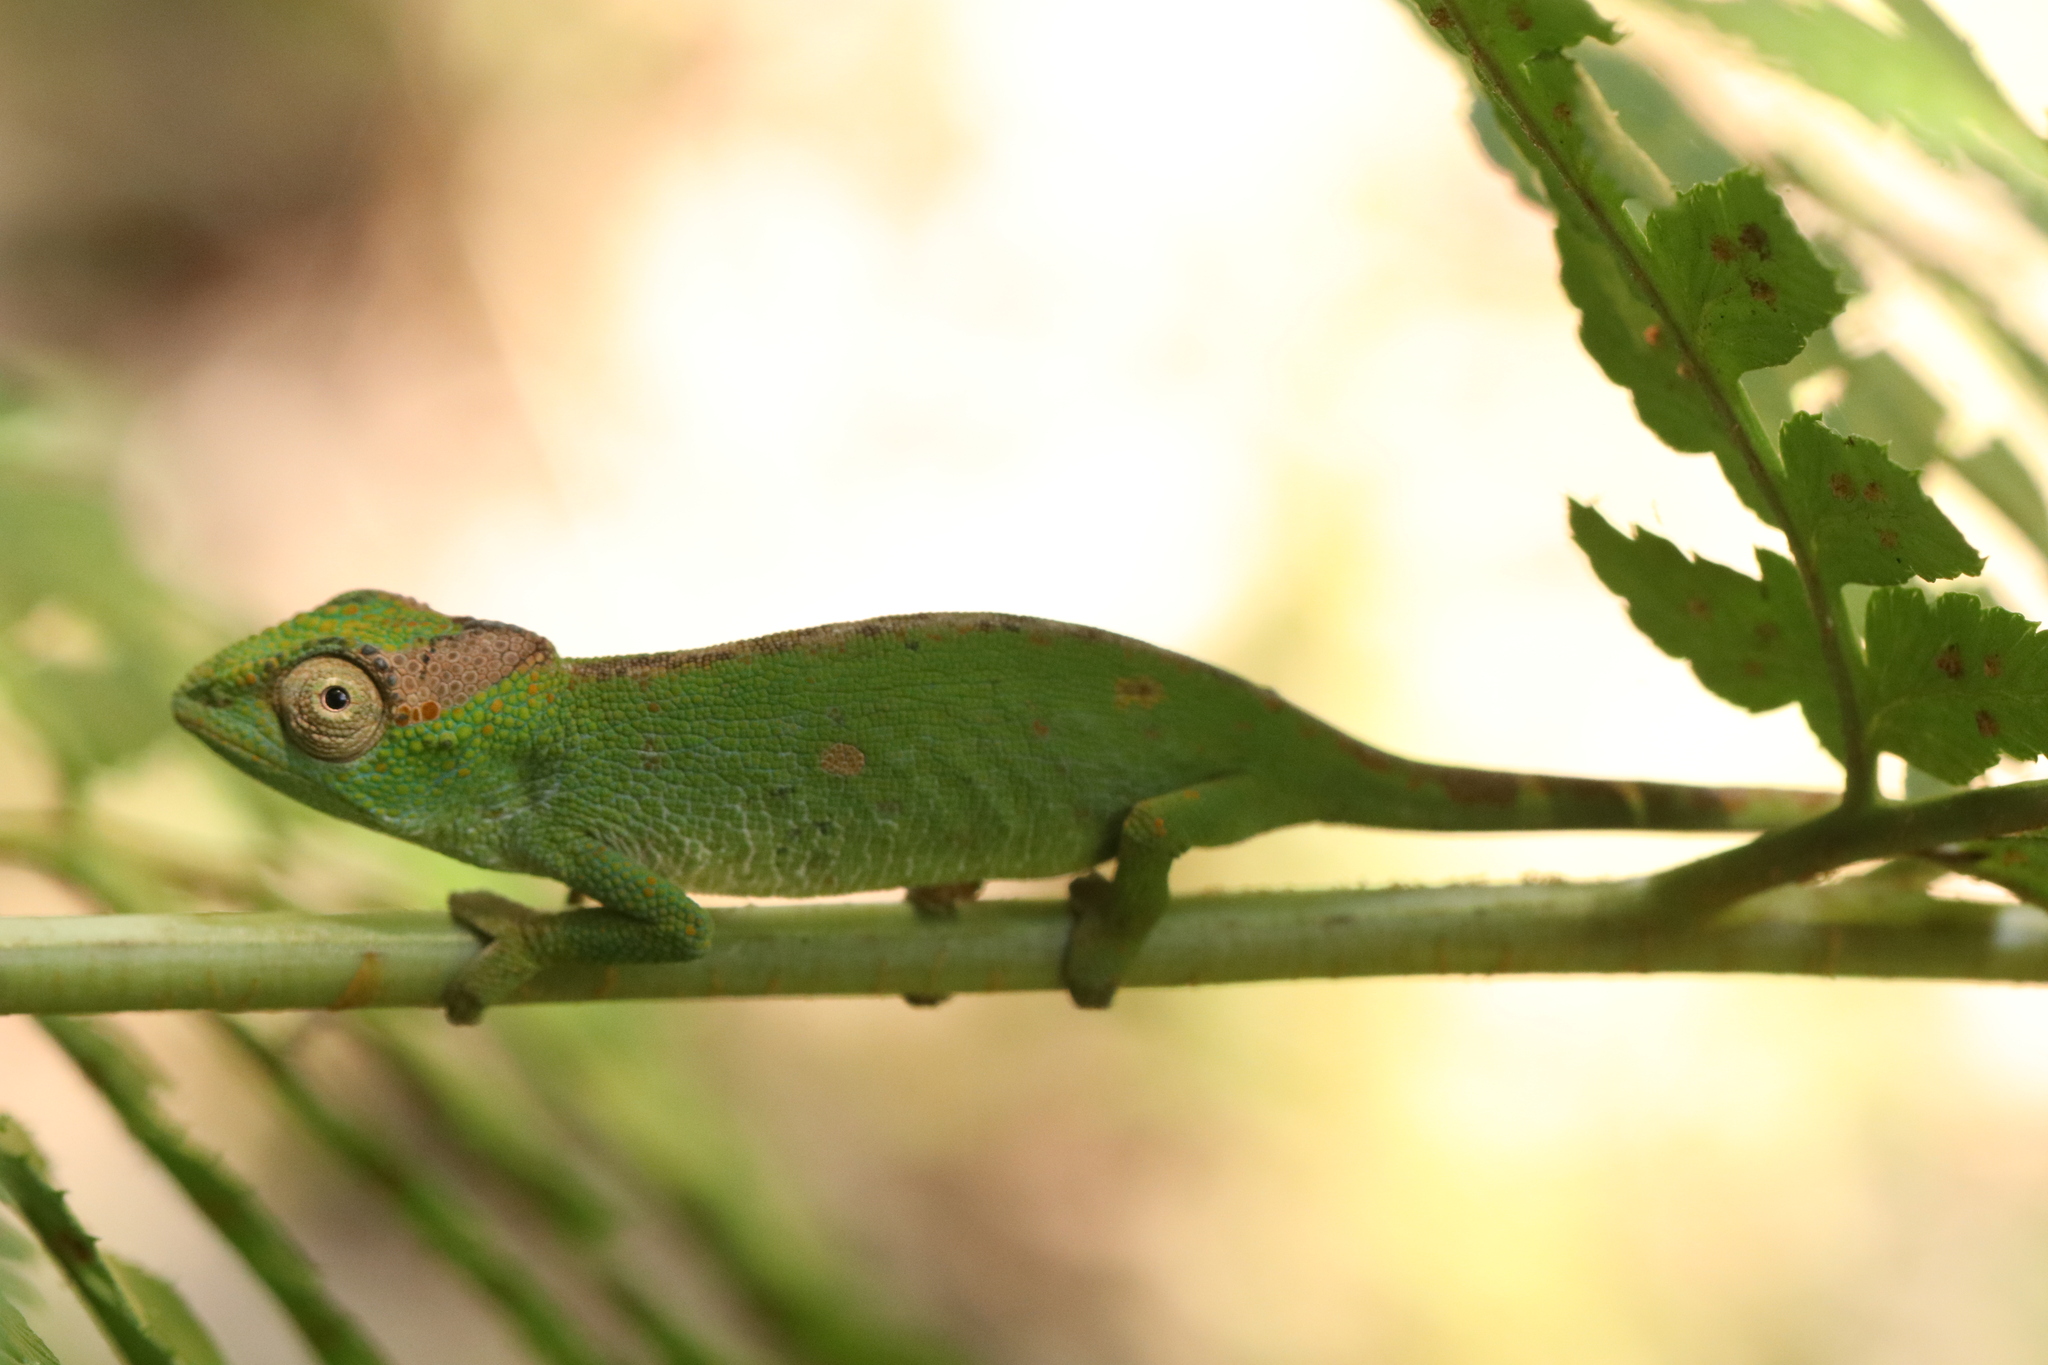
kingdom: Animalia
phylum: Chordata
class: Squamata
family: Chamaeleonidae
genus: Kinyongia
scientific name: Kinyongia msuyae
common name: Msuya’s forest chameleon
